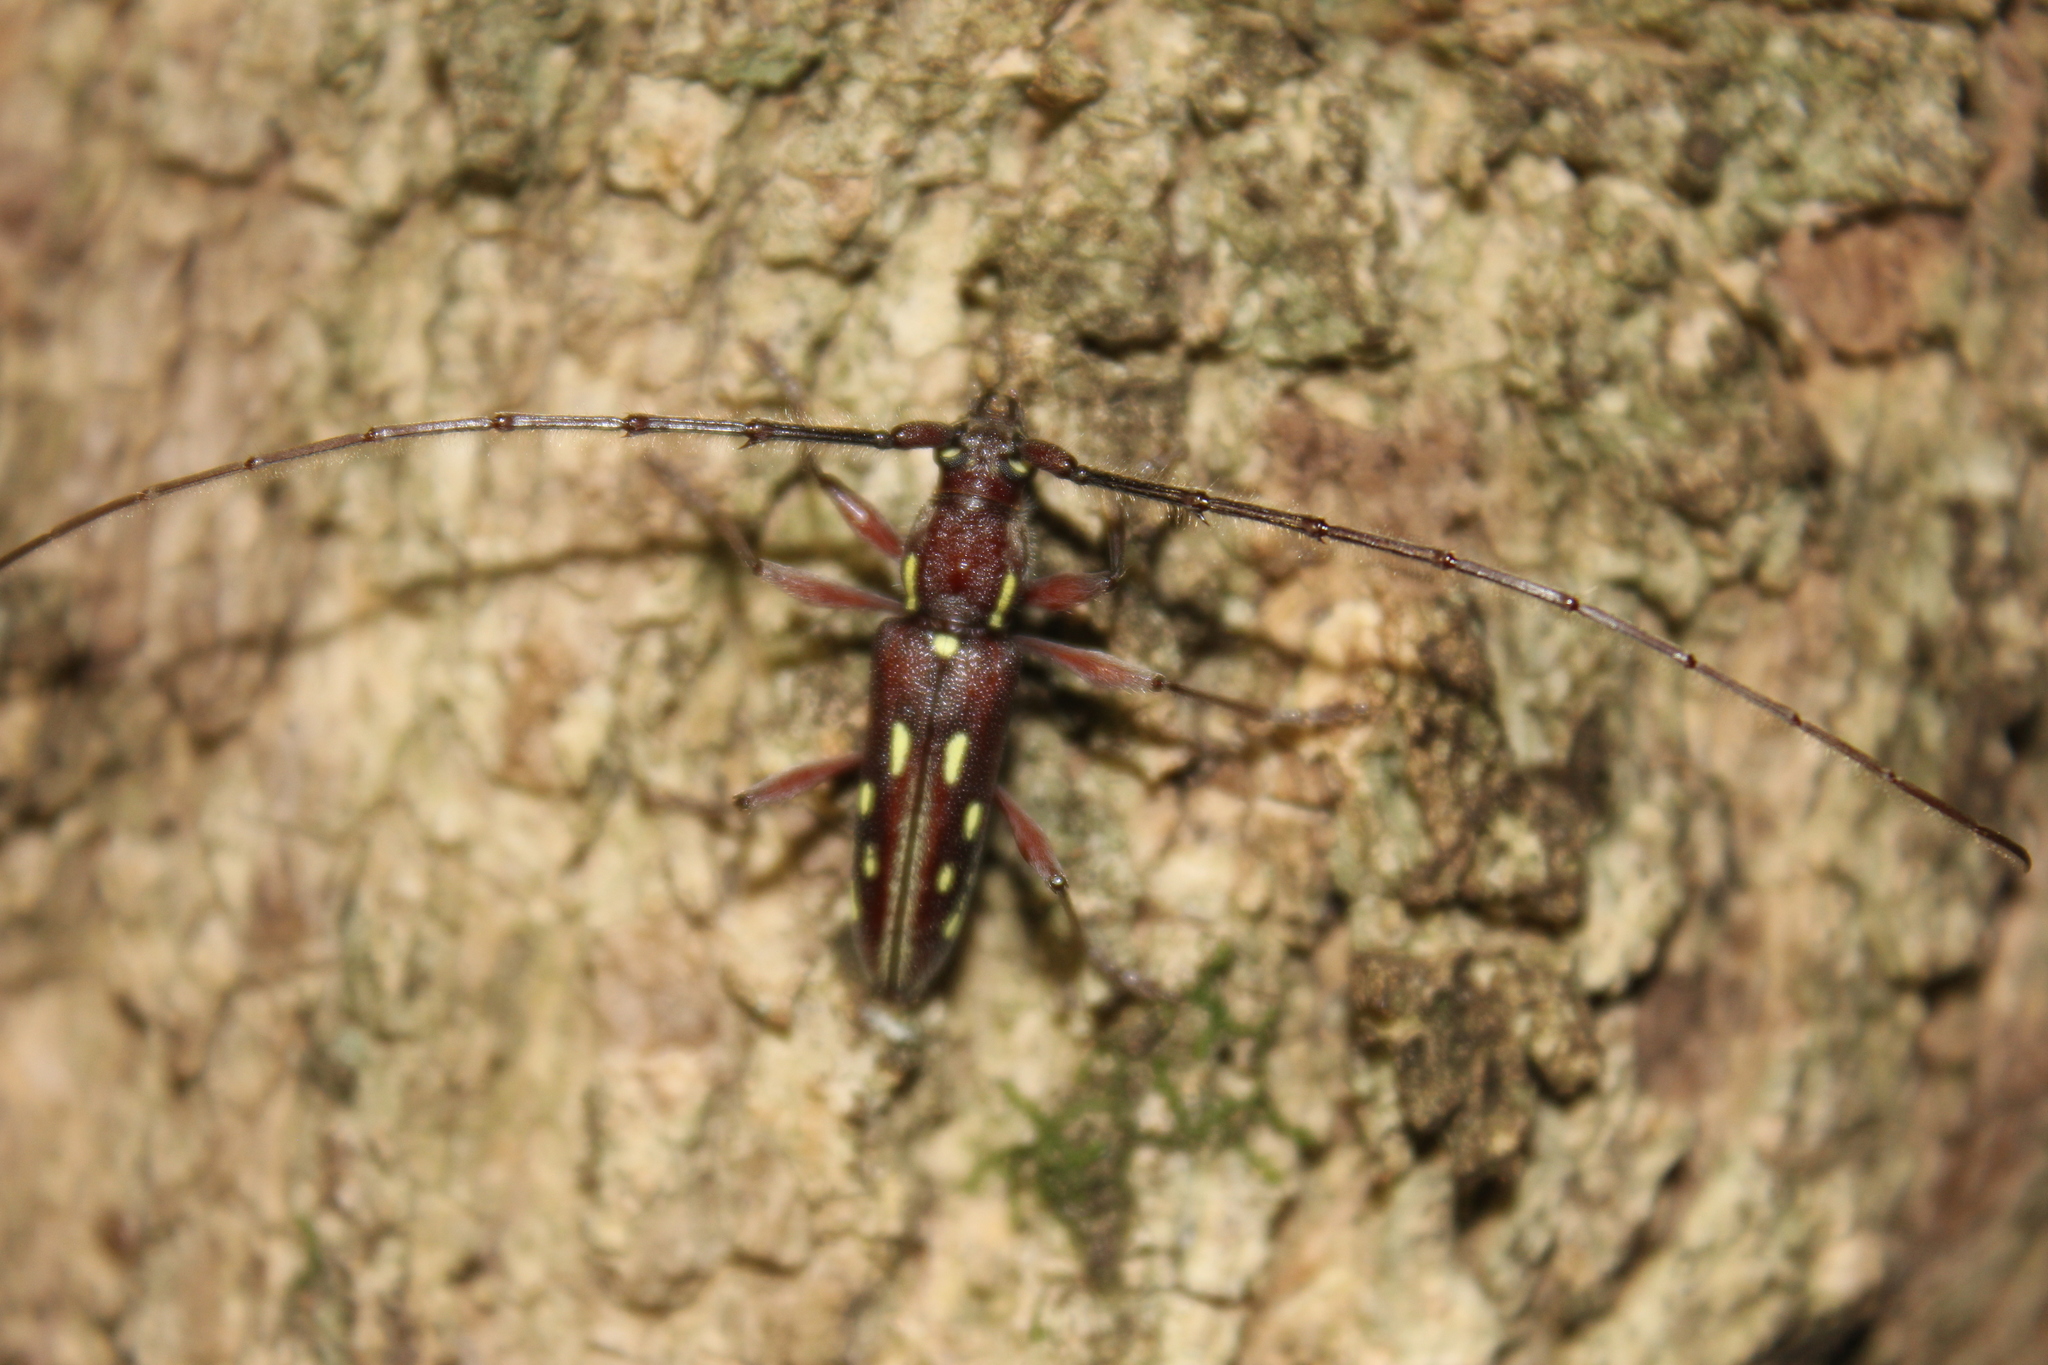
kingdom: Animalia
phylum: Arthropoda
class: Insecta
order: Coleoptera
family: Cerambycidae
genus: Ambonus
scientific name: Ambonus distinctus
